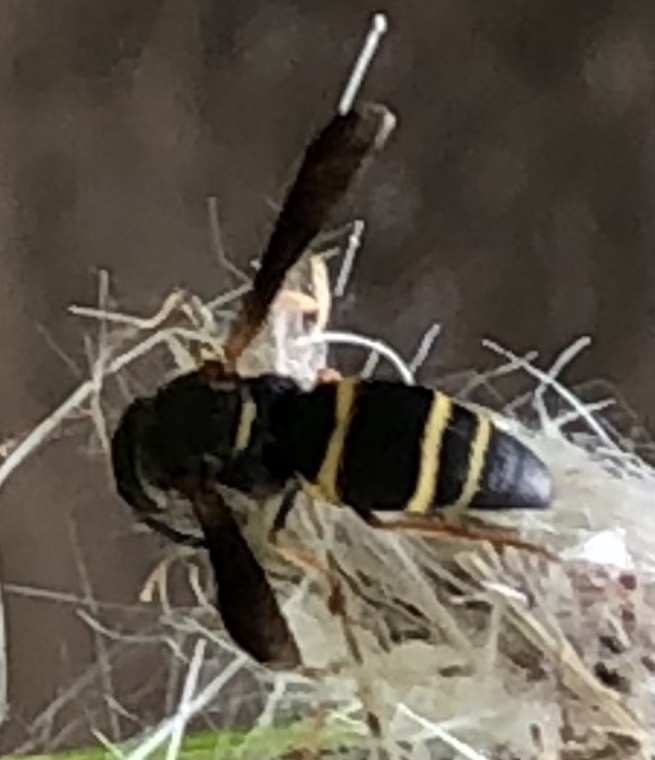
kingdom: Animalia
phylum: Arthropoda
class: Insecta
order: Hymenoptera
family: Eumenidae
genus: Euodynerus
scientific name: Euodynerus hidalgo
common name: Wasp
